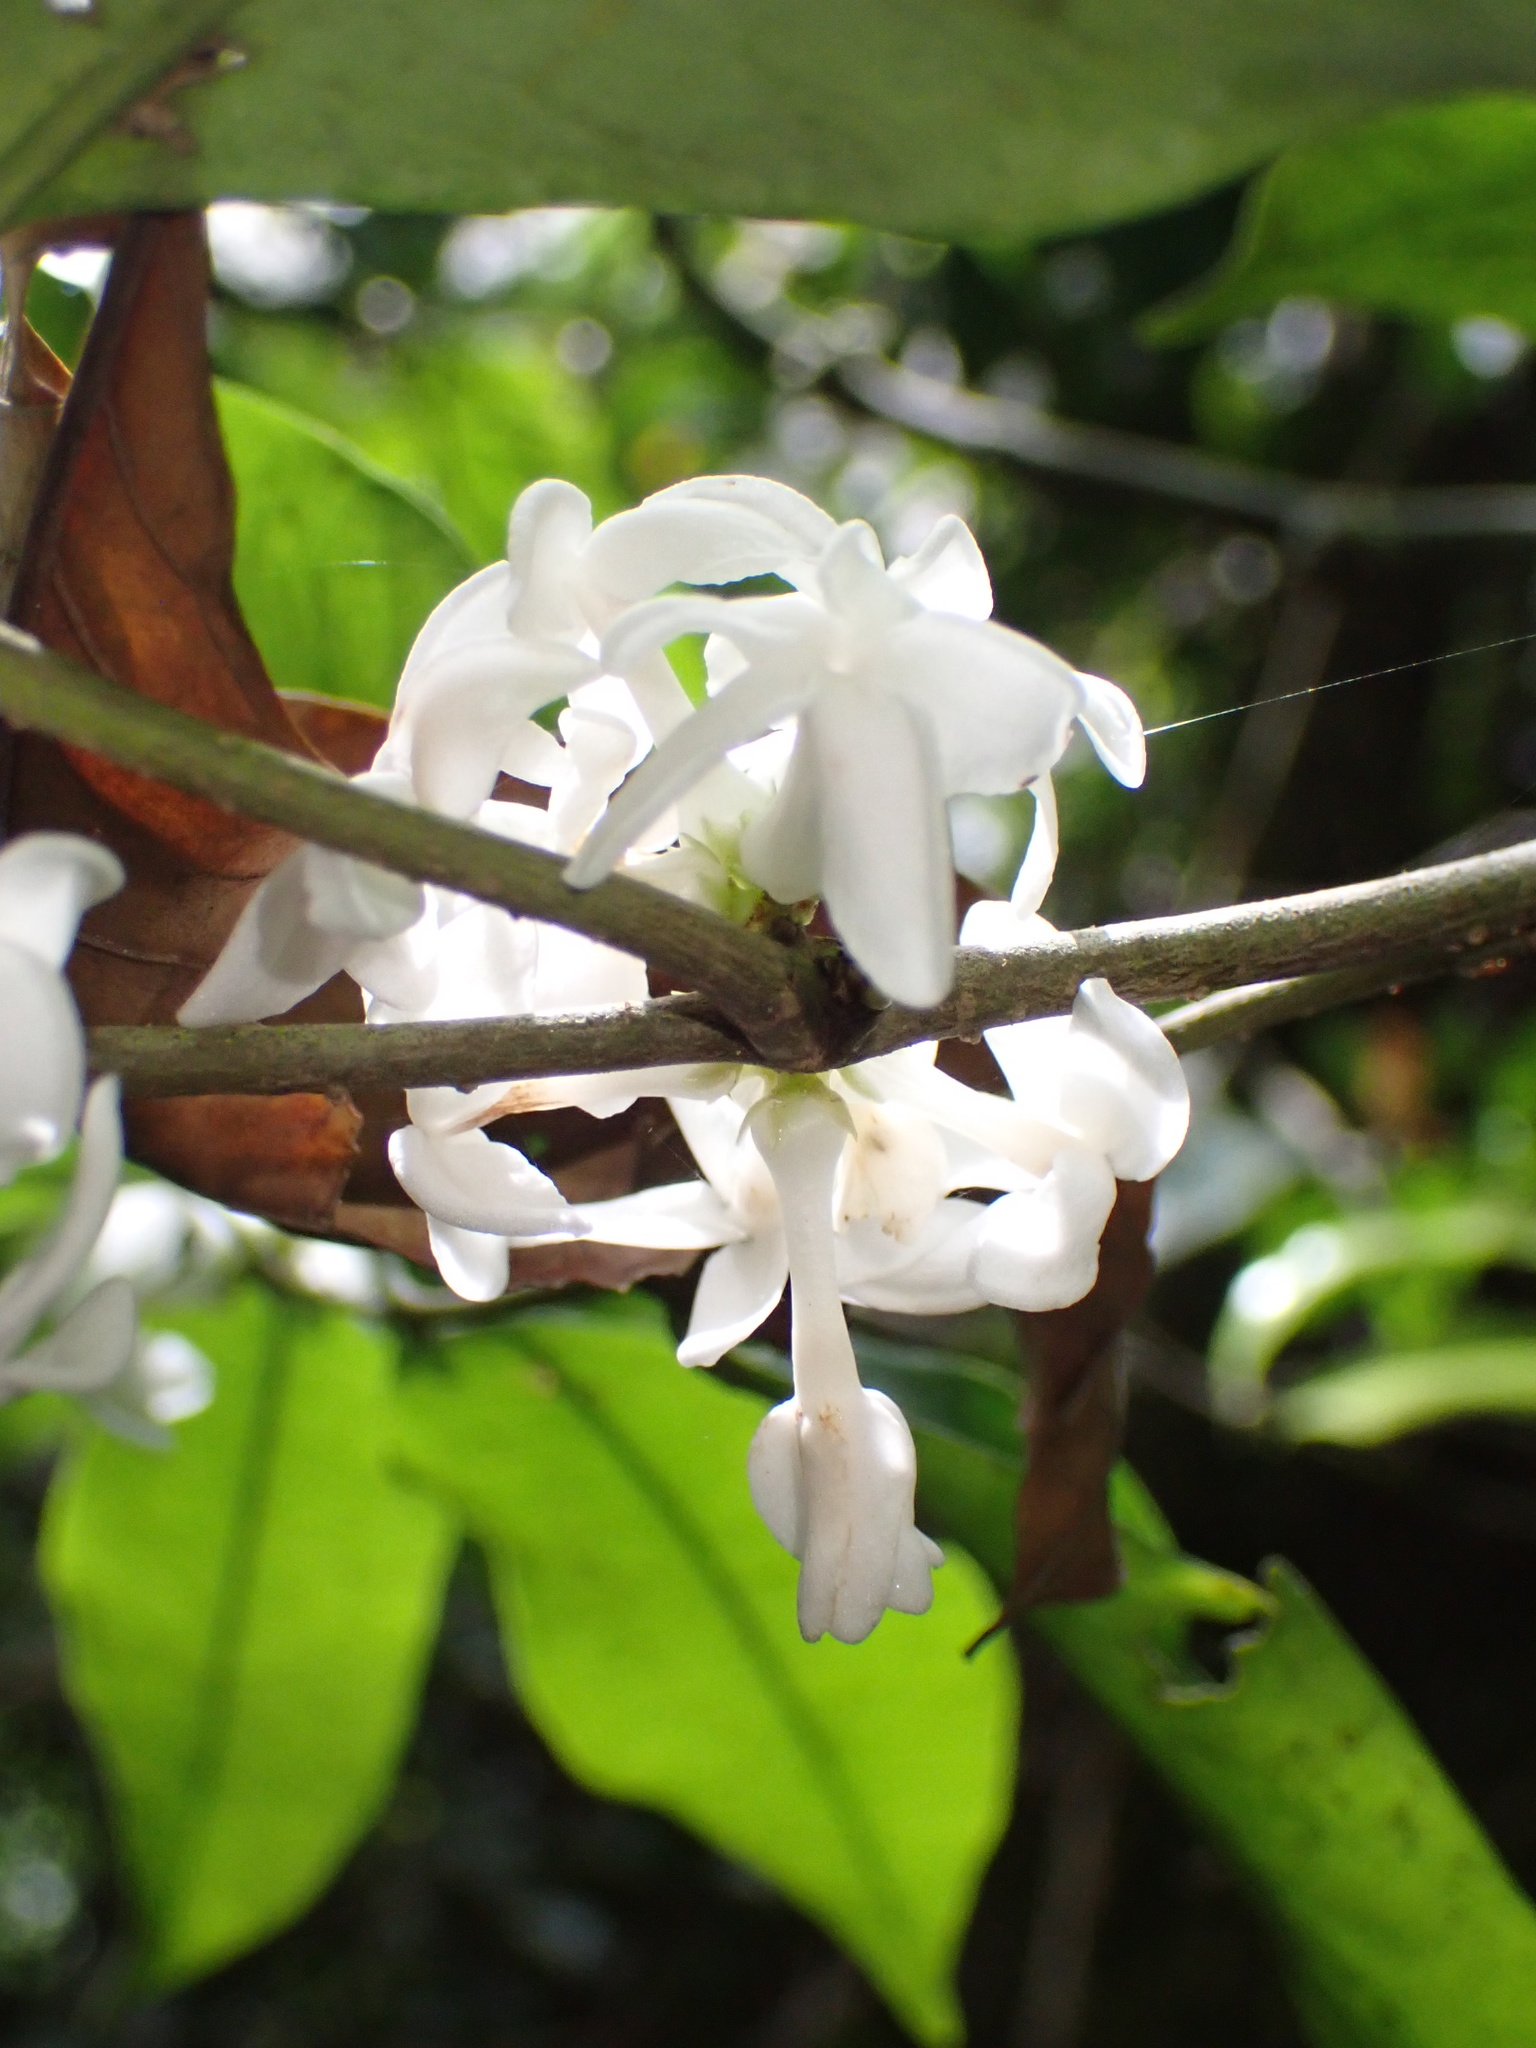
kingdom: Plantae
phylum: Tracheophyta
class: Magnoliopsida
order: Gentianales
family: Apocynaceae
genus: Pleiocarpa
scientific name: Pleiocarpa mutica
